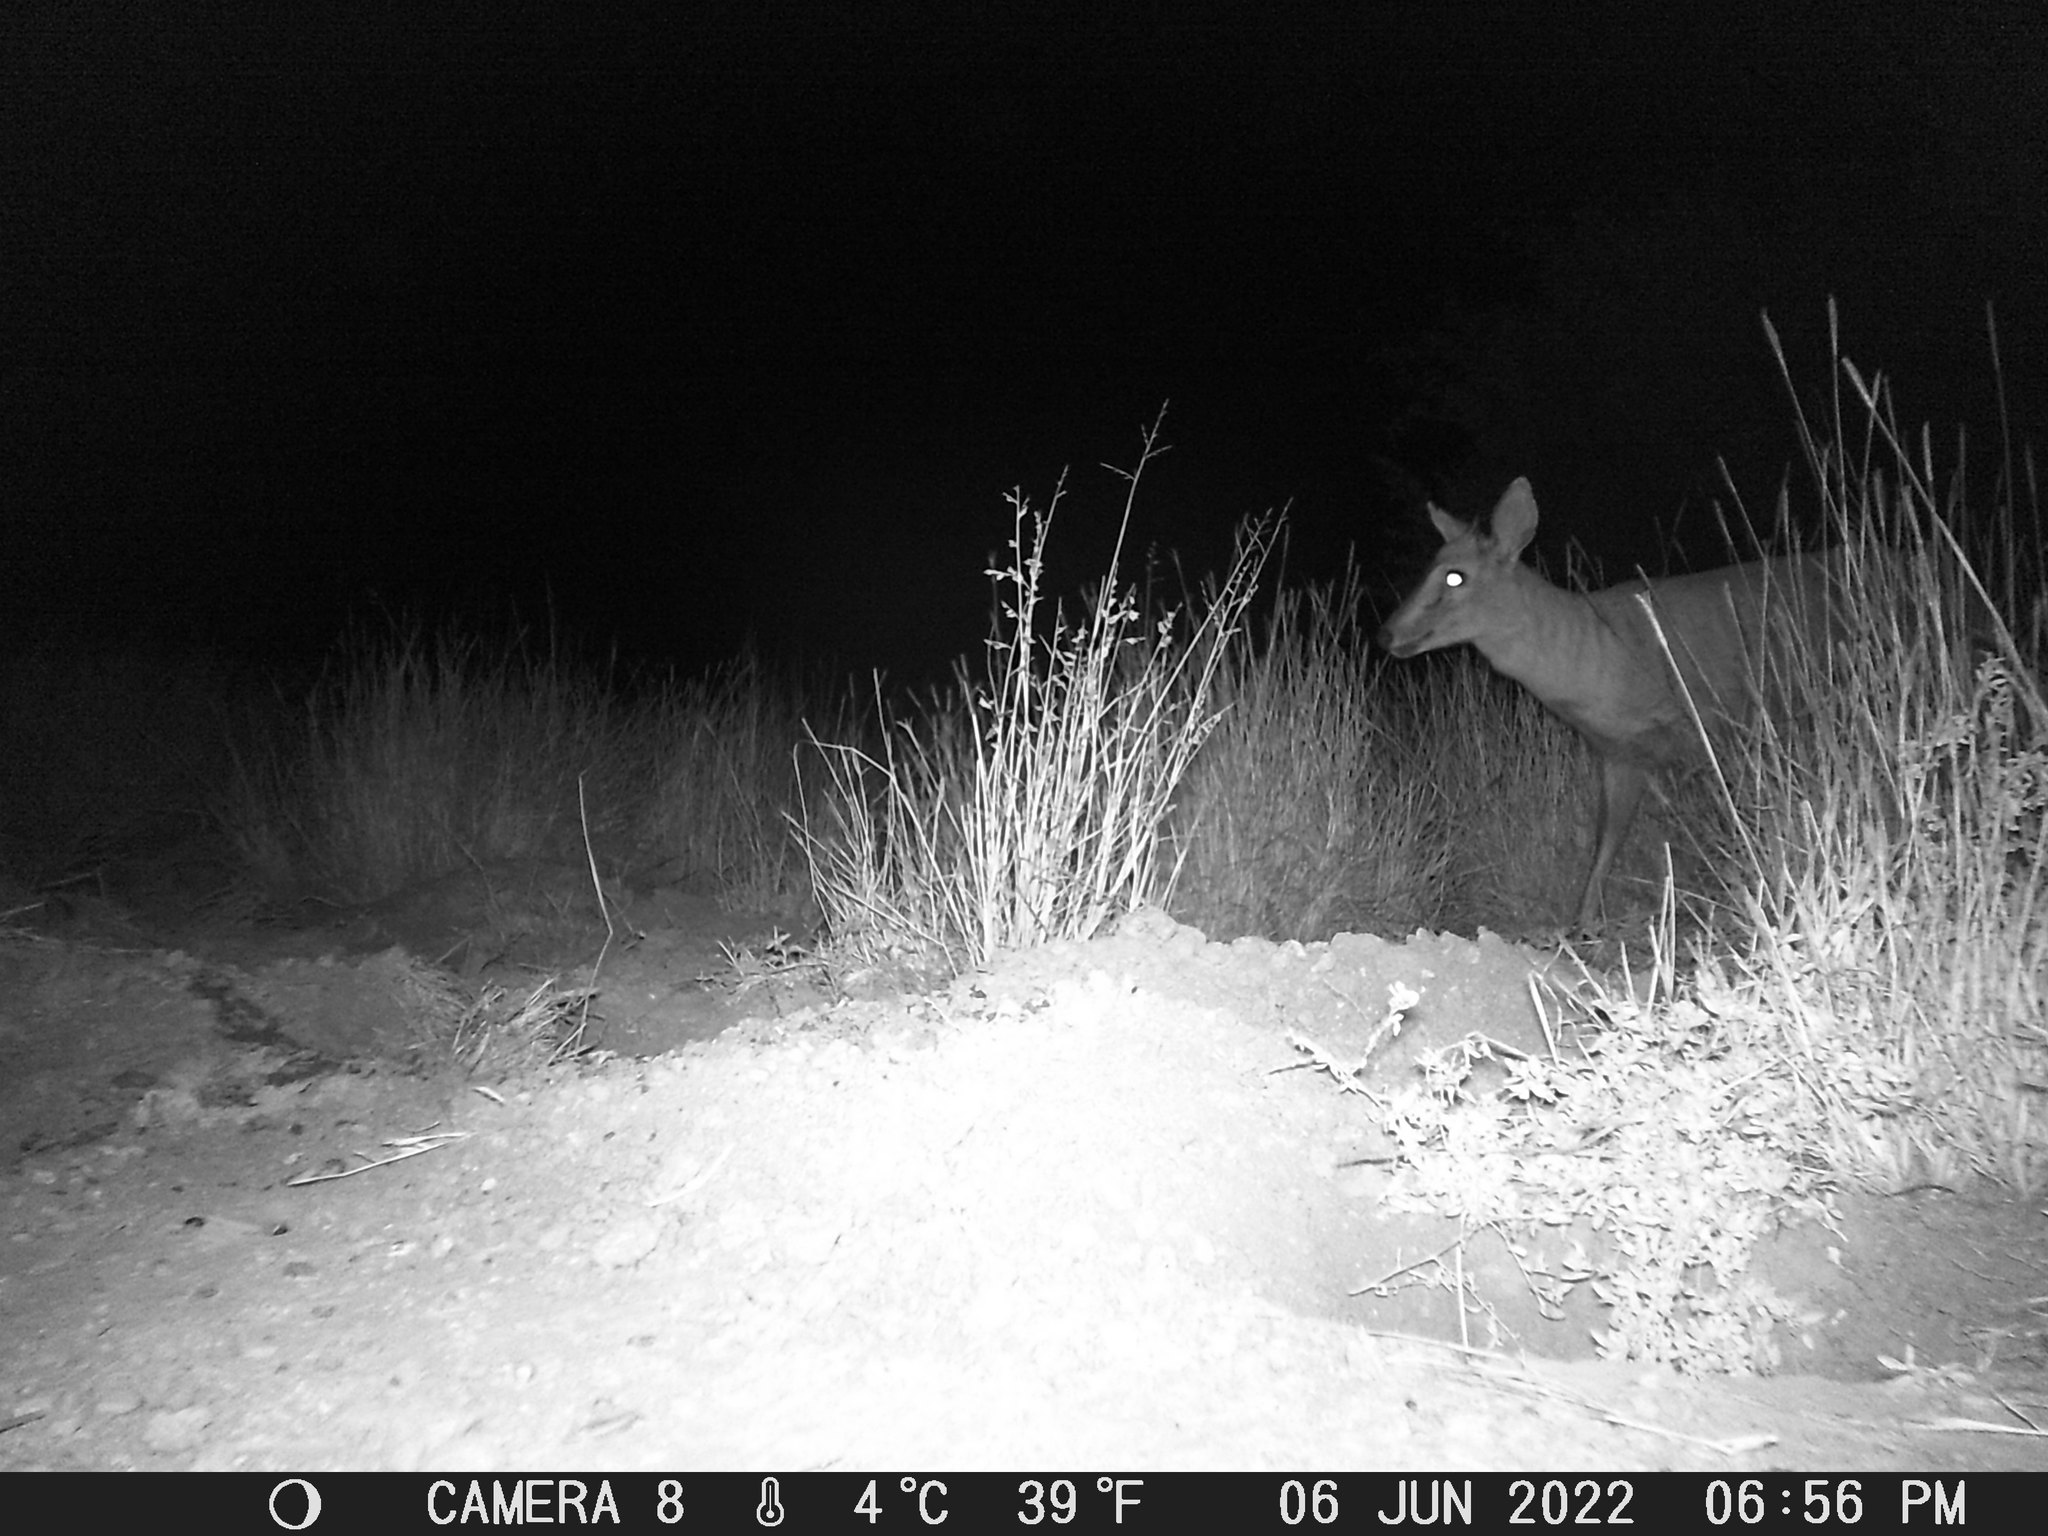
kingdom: Animalia
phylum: Chordata
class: Mammalia
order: Artiodactyla
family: Bovidae
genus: Sylvicapra
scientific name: Sylvicapra grimmia
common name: Bush duiker
